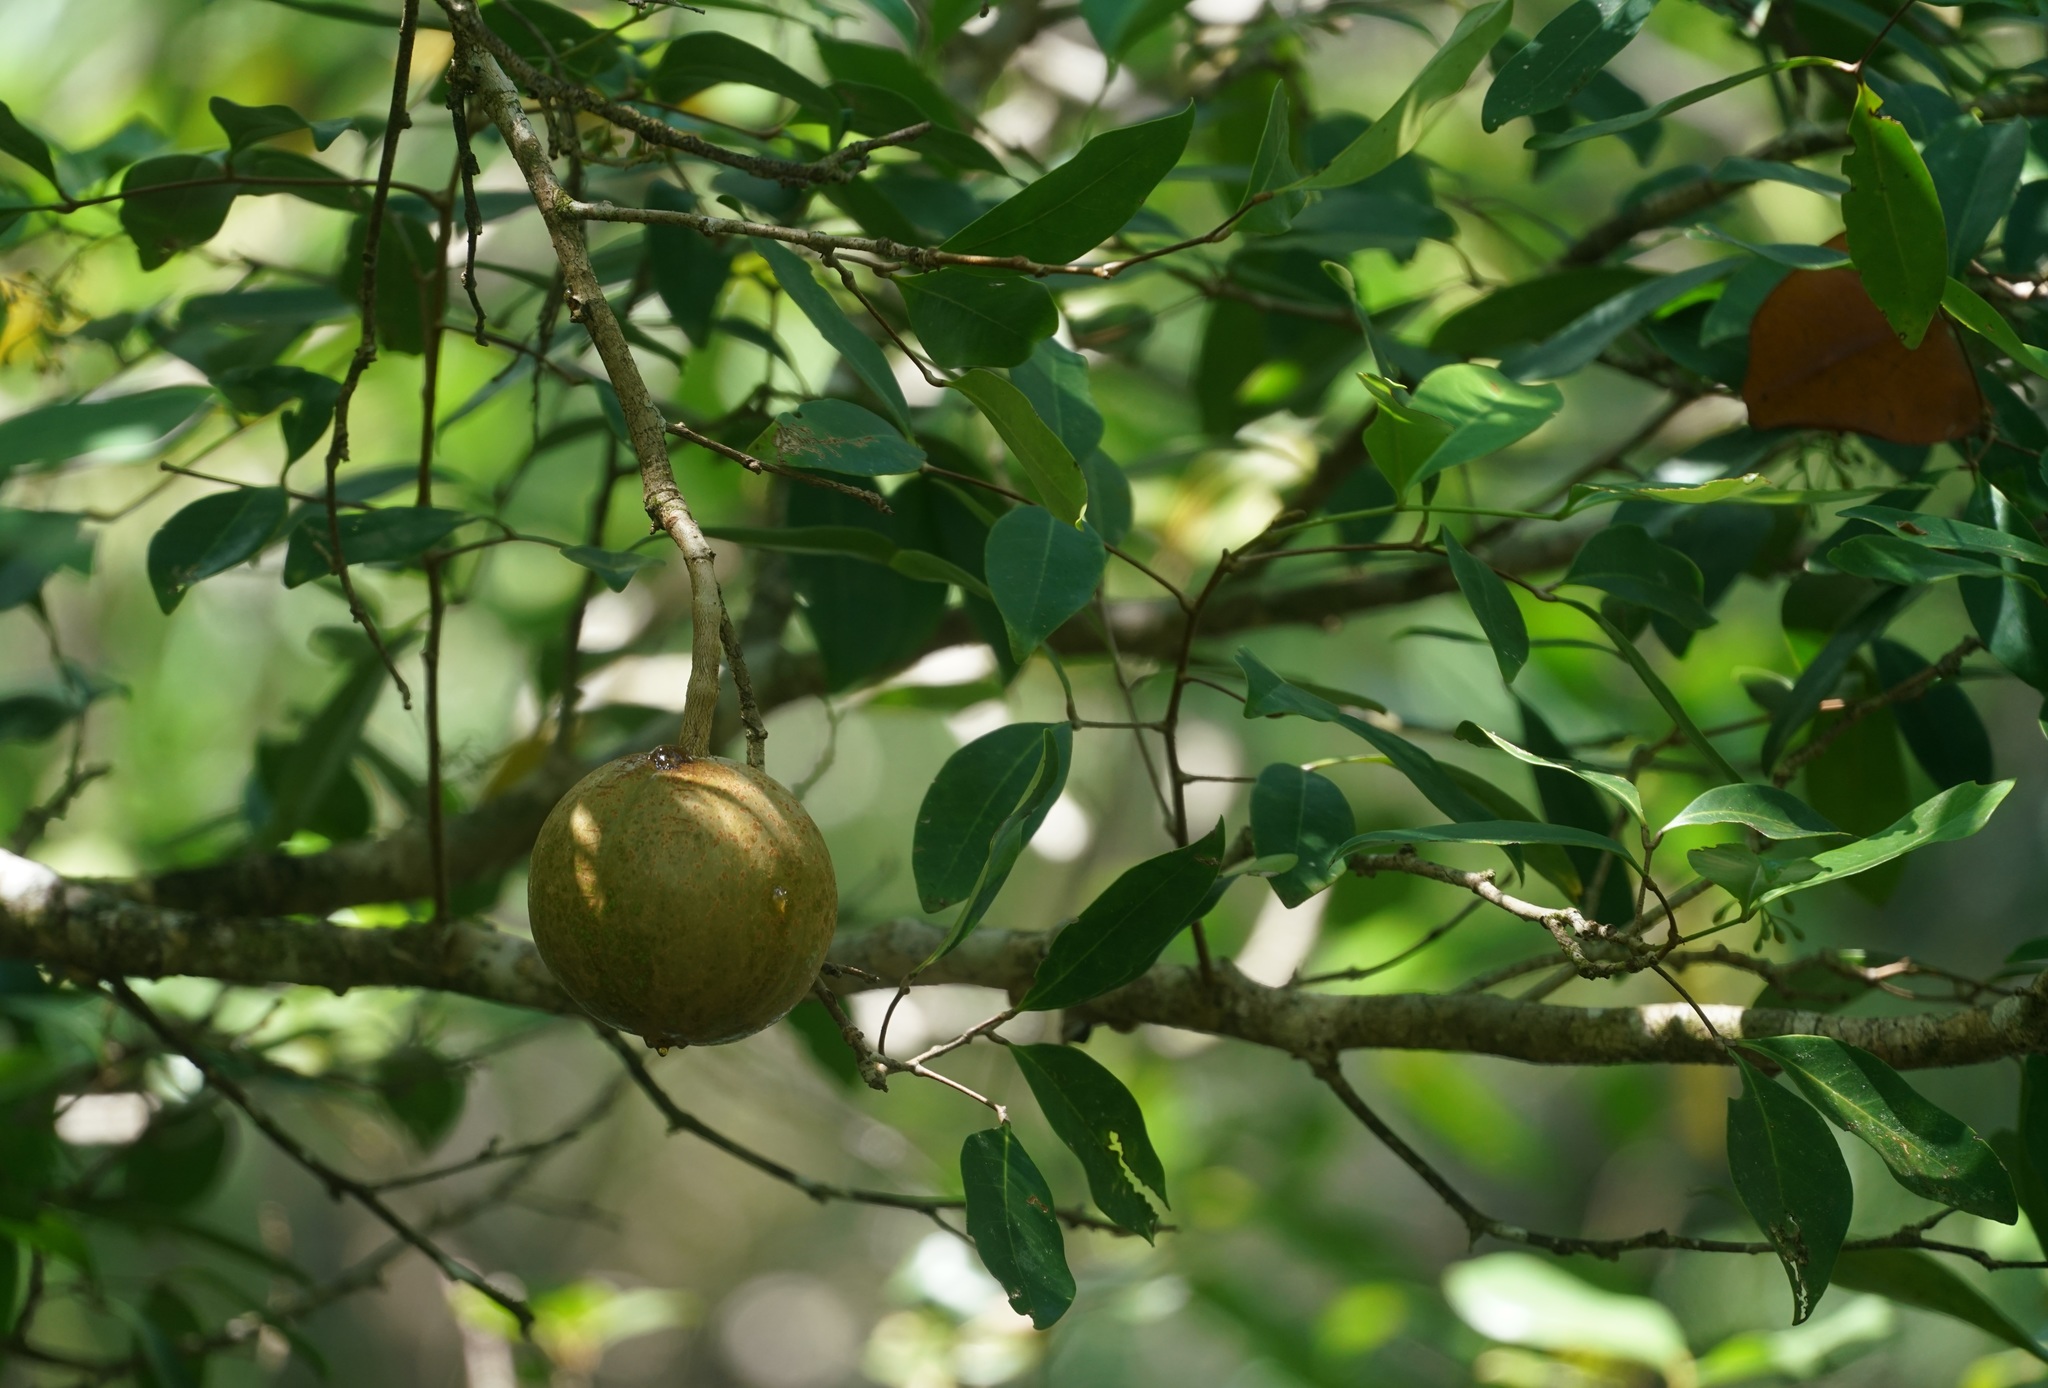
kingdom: Plantae
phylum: Tracheophyta
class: Magnoliopsida
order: Sapindales
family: Meliaceae
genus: Xylocarpus
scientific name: Xylocarpus granatum
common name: Apple mangrove
